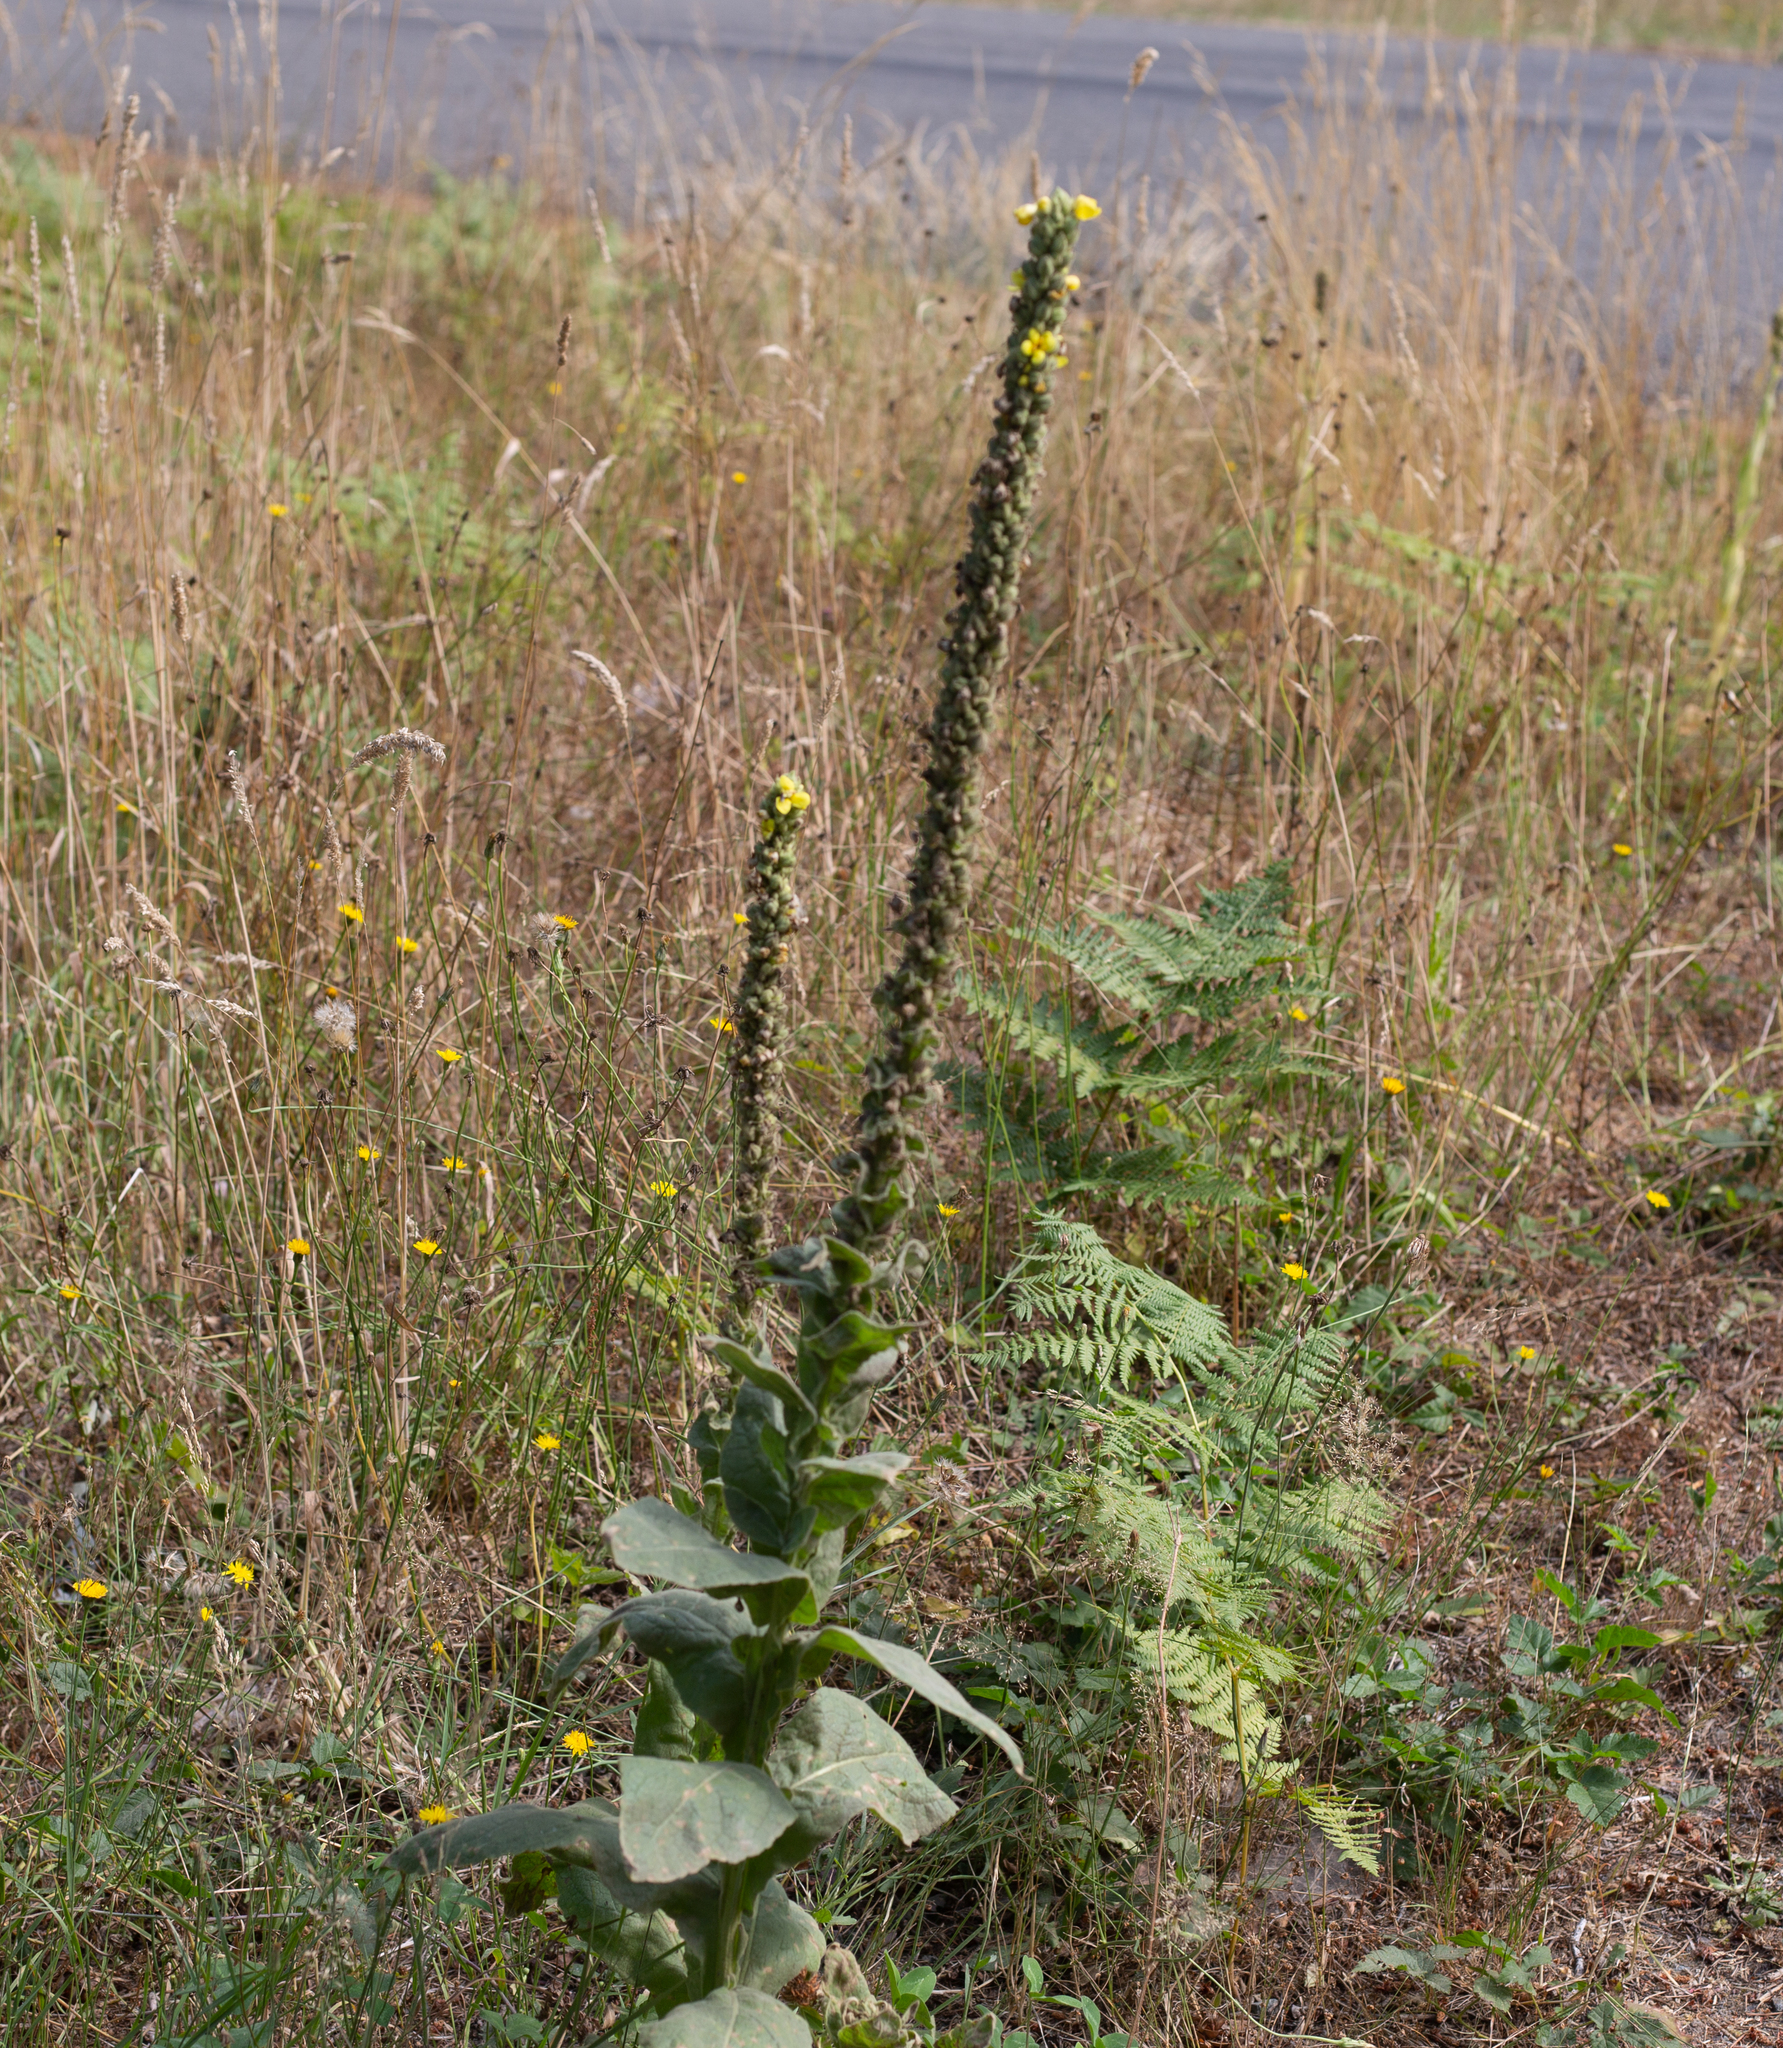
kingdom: Plantae
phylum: Tracheophyta
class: Magnoliopsida
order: Lamiales
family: Scrophulariaceae
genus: Verbascum
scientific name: Verbascum thapsus
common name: Common mullein
